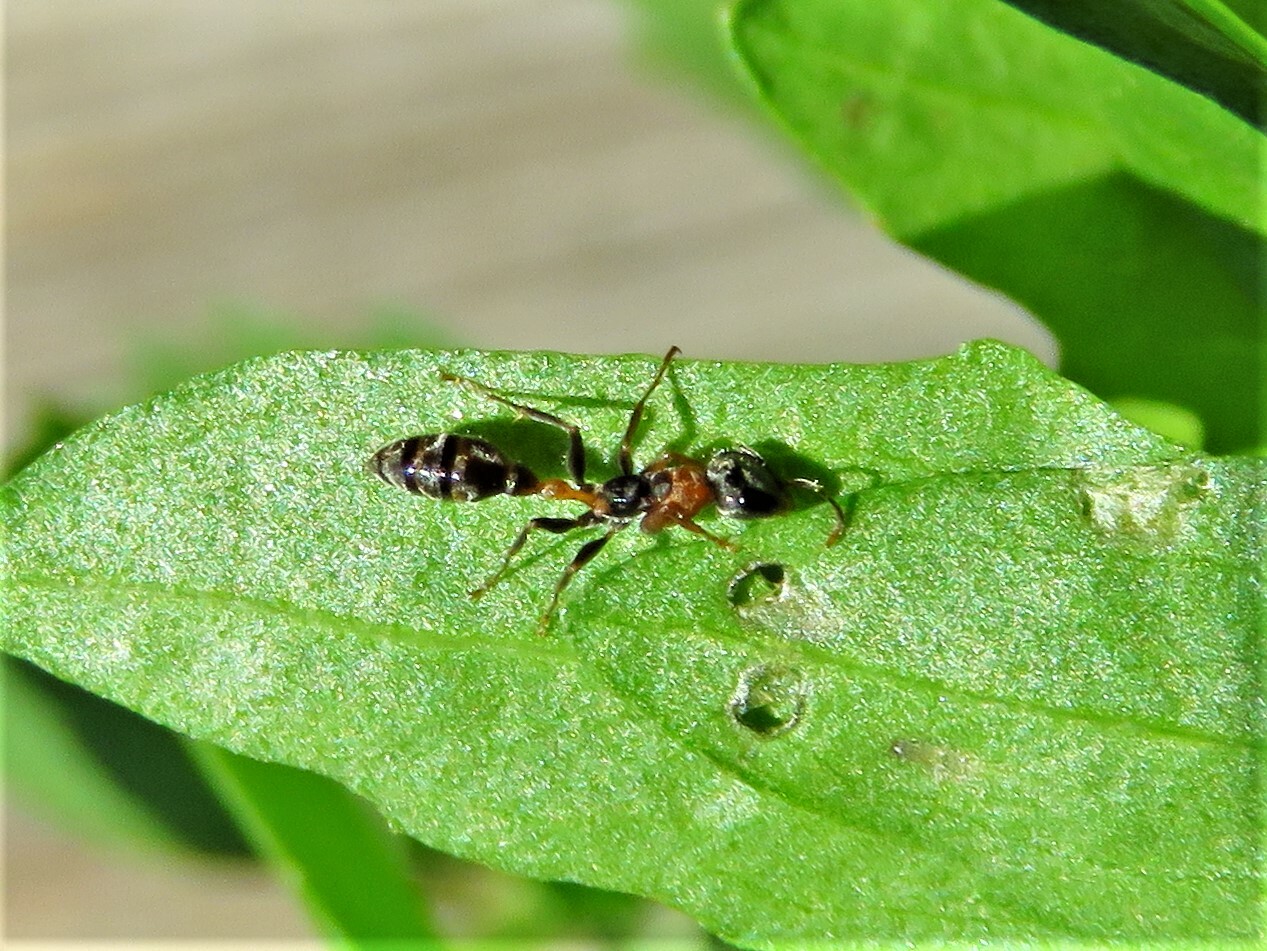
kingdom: Animalia
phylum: Arthropoda
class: Insecta
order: Hymenoptera
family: Formicidae
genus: Pseudomyrmex
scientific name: Pseudomyrmex gracilis
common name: Graceful twig ant
